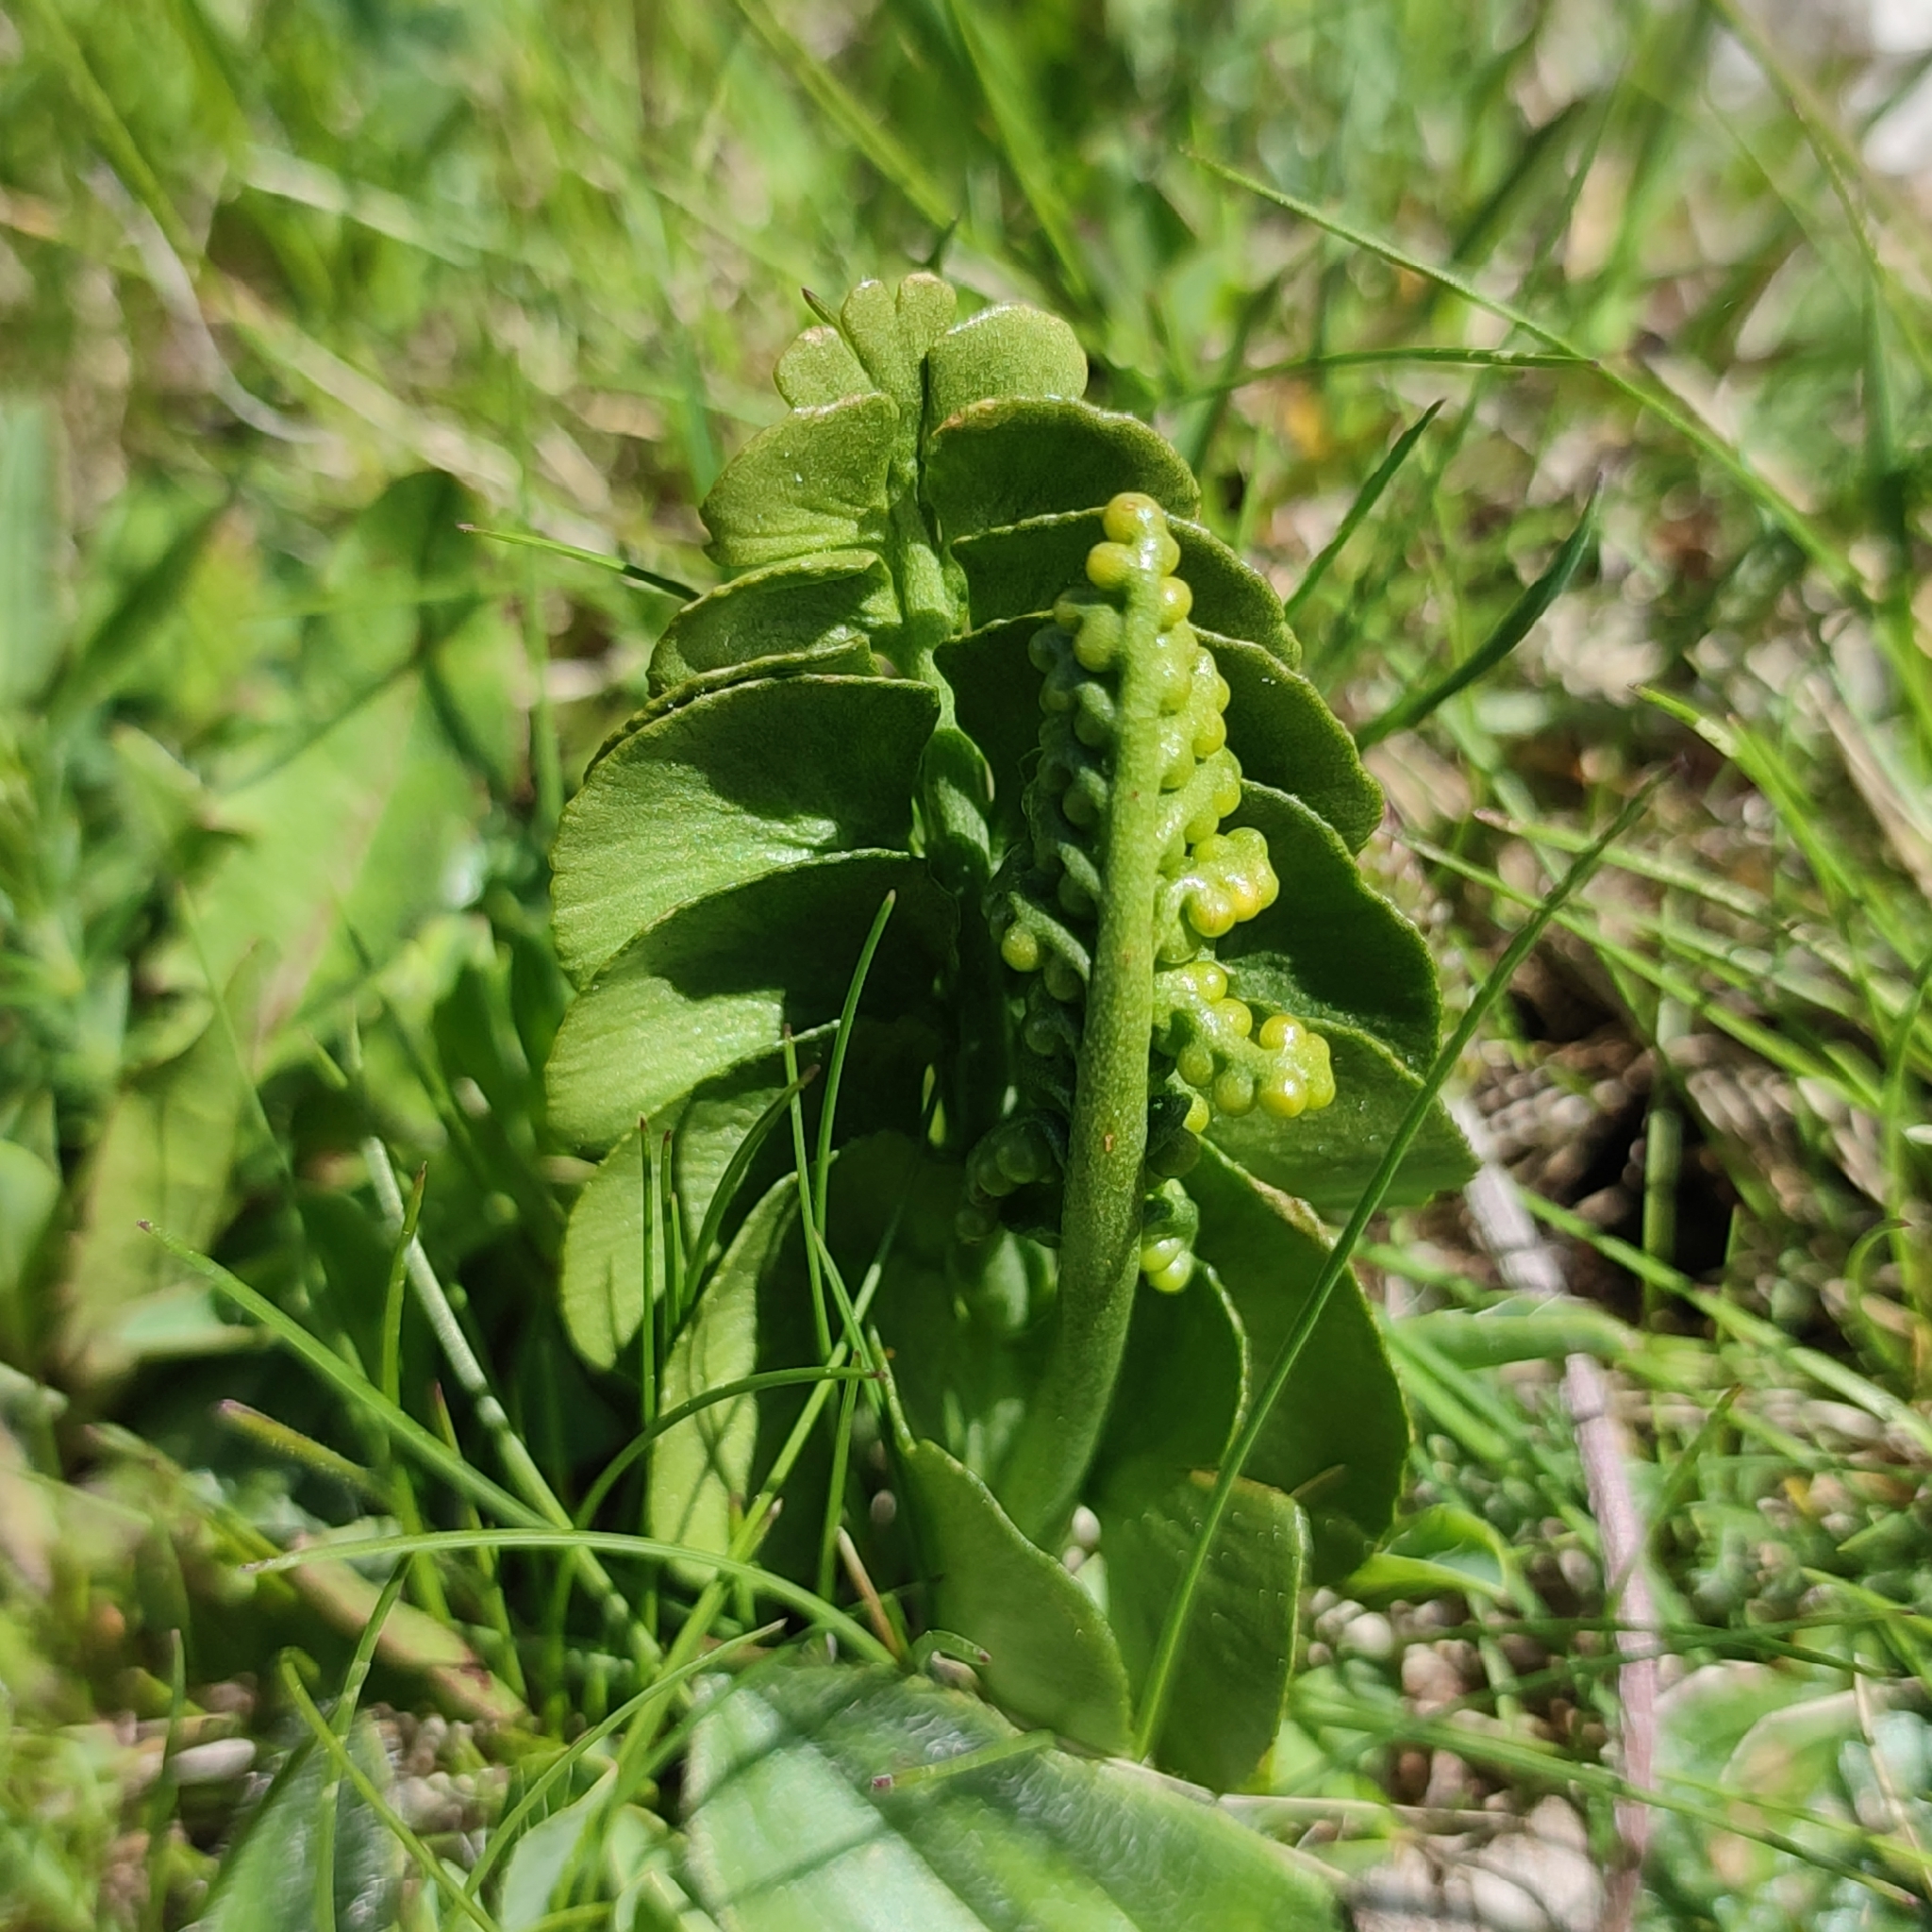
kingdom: Plantae
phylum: Tracheophyta
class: Polypodiopsida
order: Ophioglossales
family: Ophioglossaceae
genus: Botrychium
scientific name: Botrychium lunaria
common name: Moonwort
